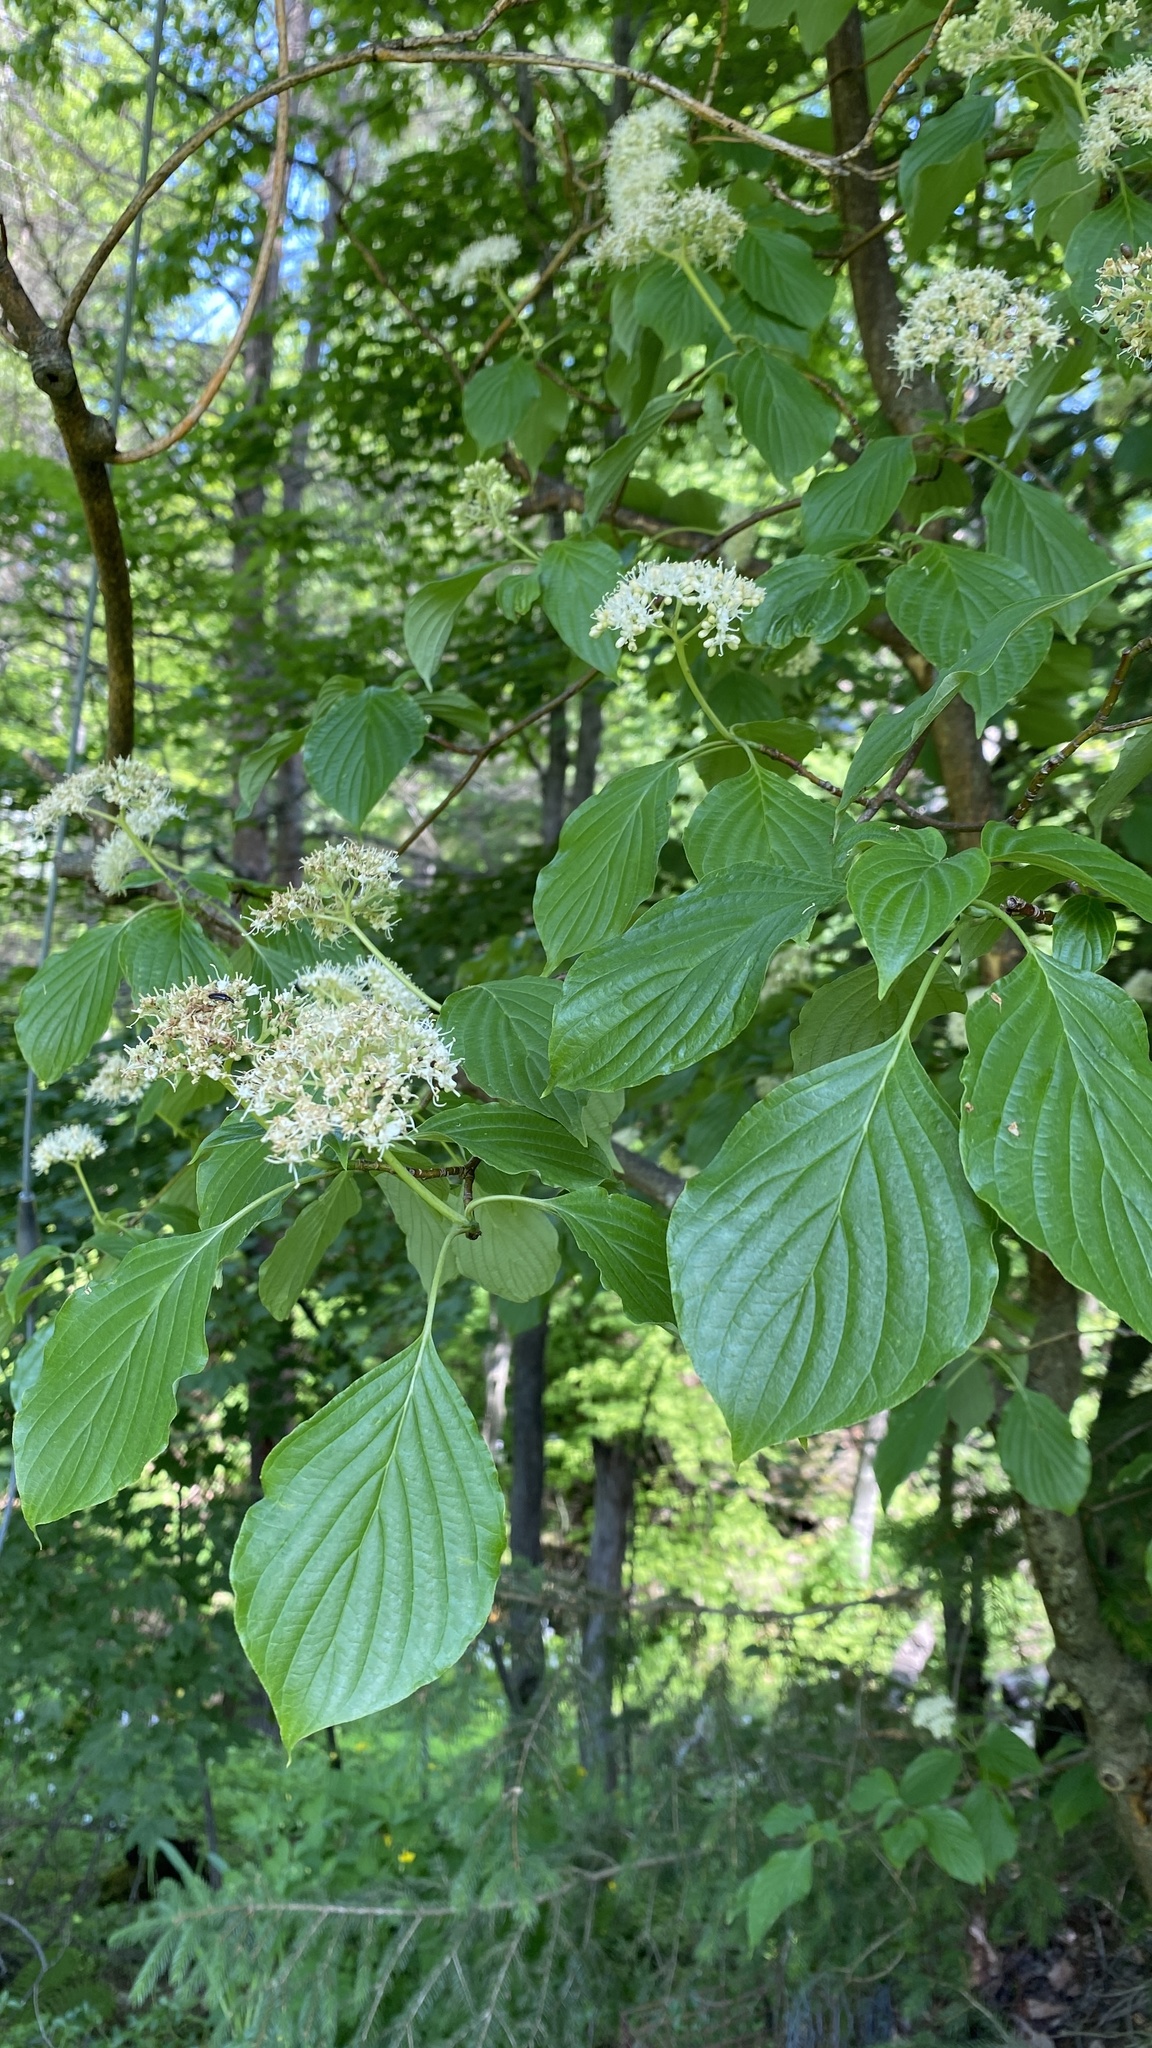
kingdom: Plantae
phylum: Tracheophyta
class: Magnoliopsida
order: Cornales
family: Cornaceae
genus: Cornus
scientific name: Cornus alternifolia
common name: Pagoda dogwood
